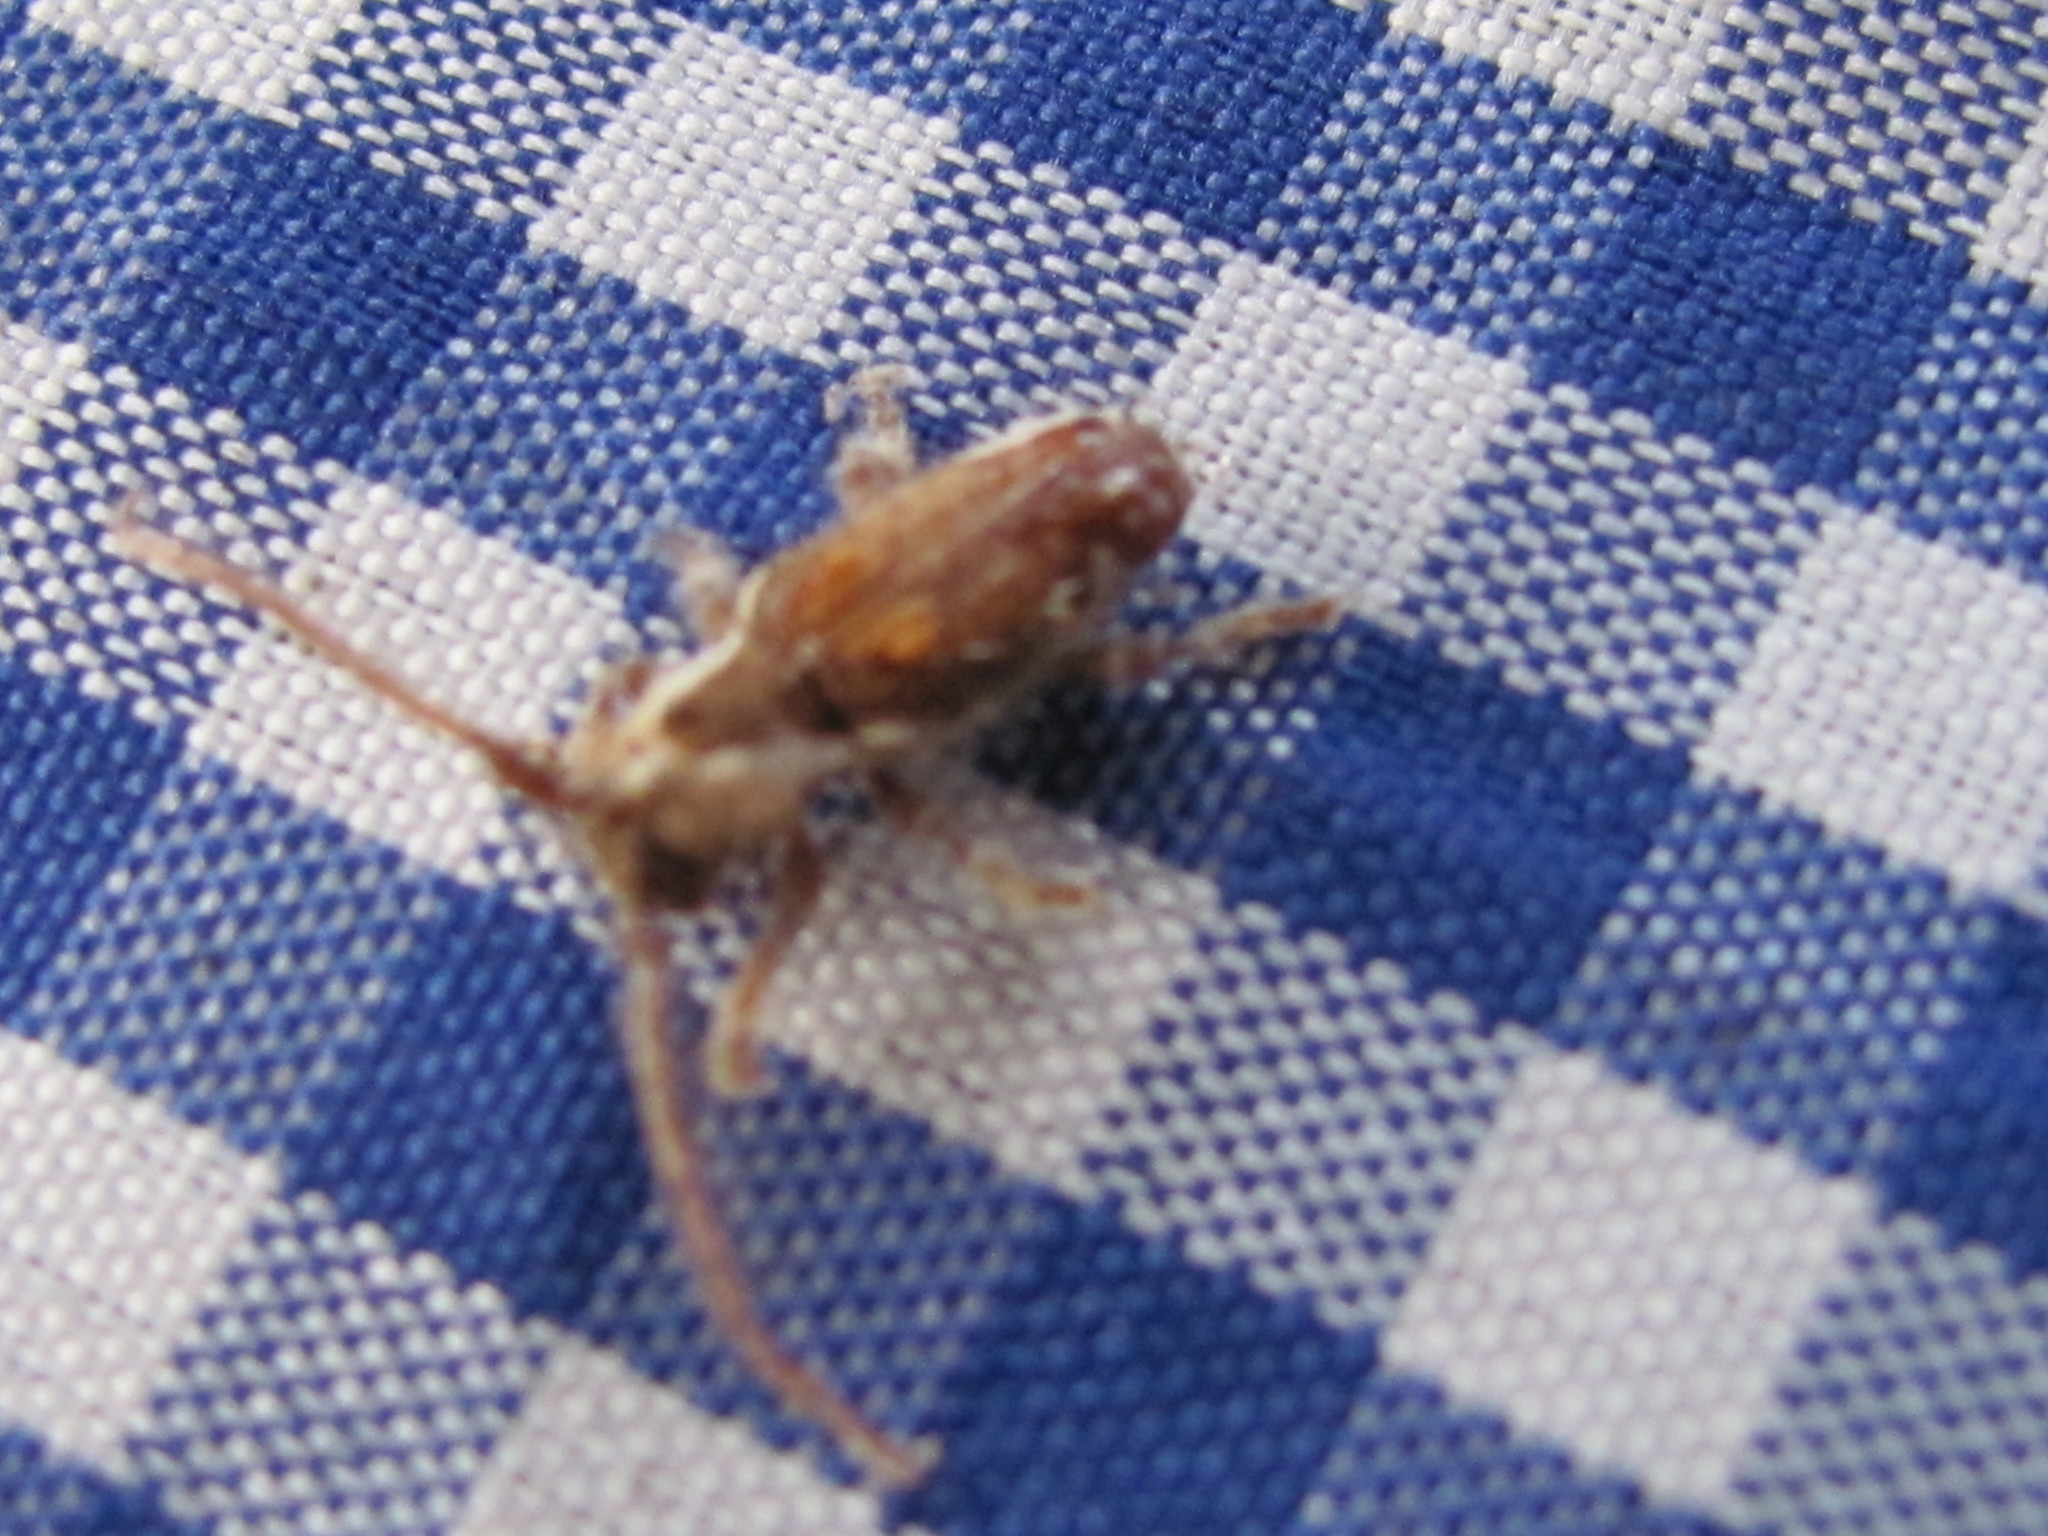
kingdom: Animalia
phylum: Arthropoda
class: Insecta
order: Coleoptera
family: Cerambycidae
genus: Desmiphora
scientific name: Desmiphora scapularis
